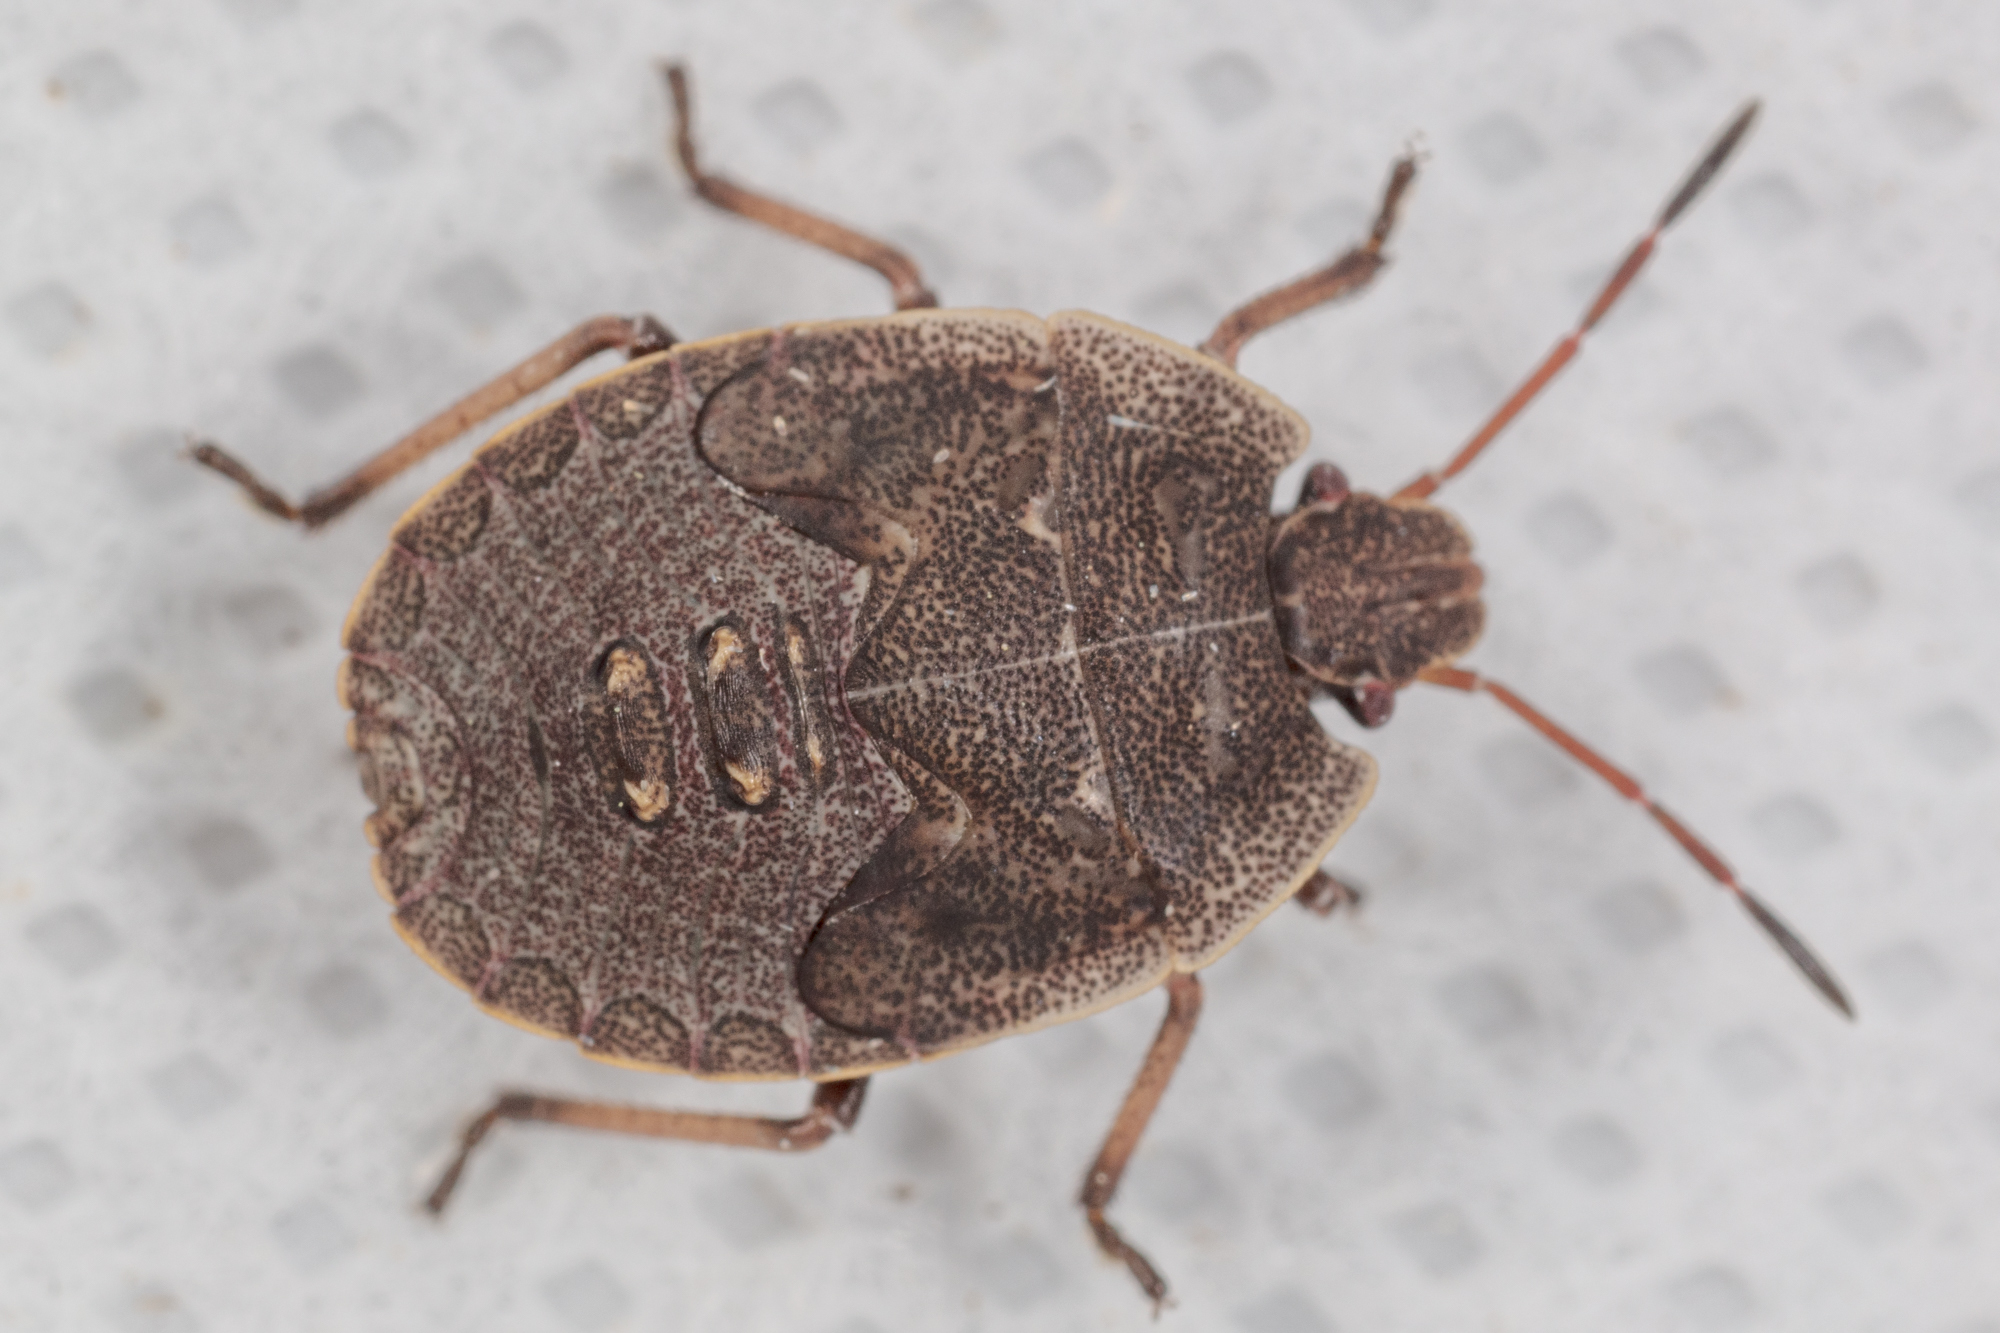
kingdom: Animalia
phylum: Arthropoda
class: Insecta
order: Hemiptera
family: Pentatomidae
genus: Menecles
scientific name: Menecles insertus
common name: Elf shoe stink bug
